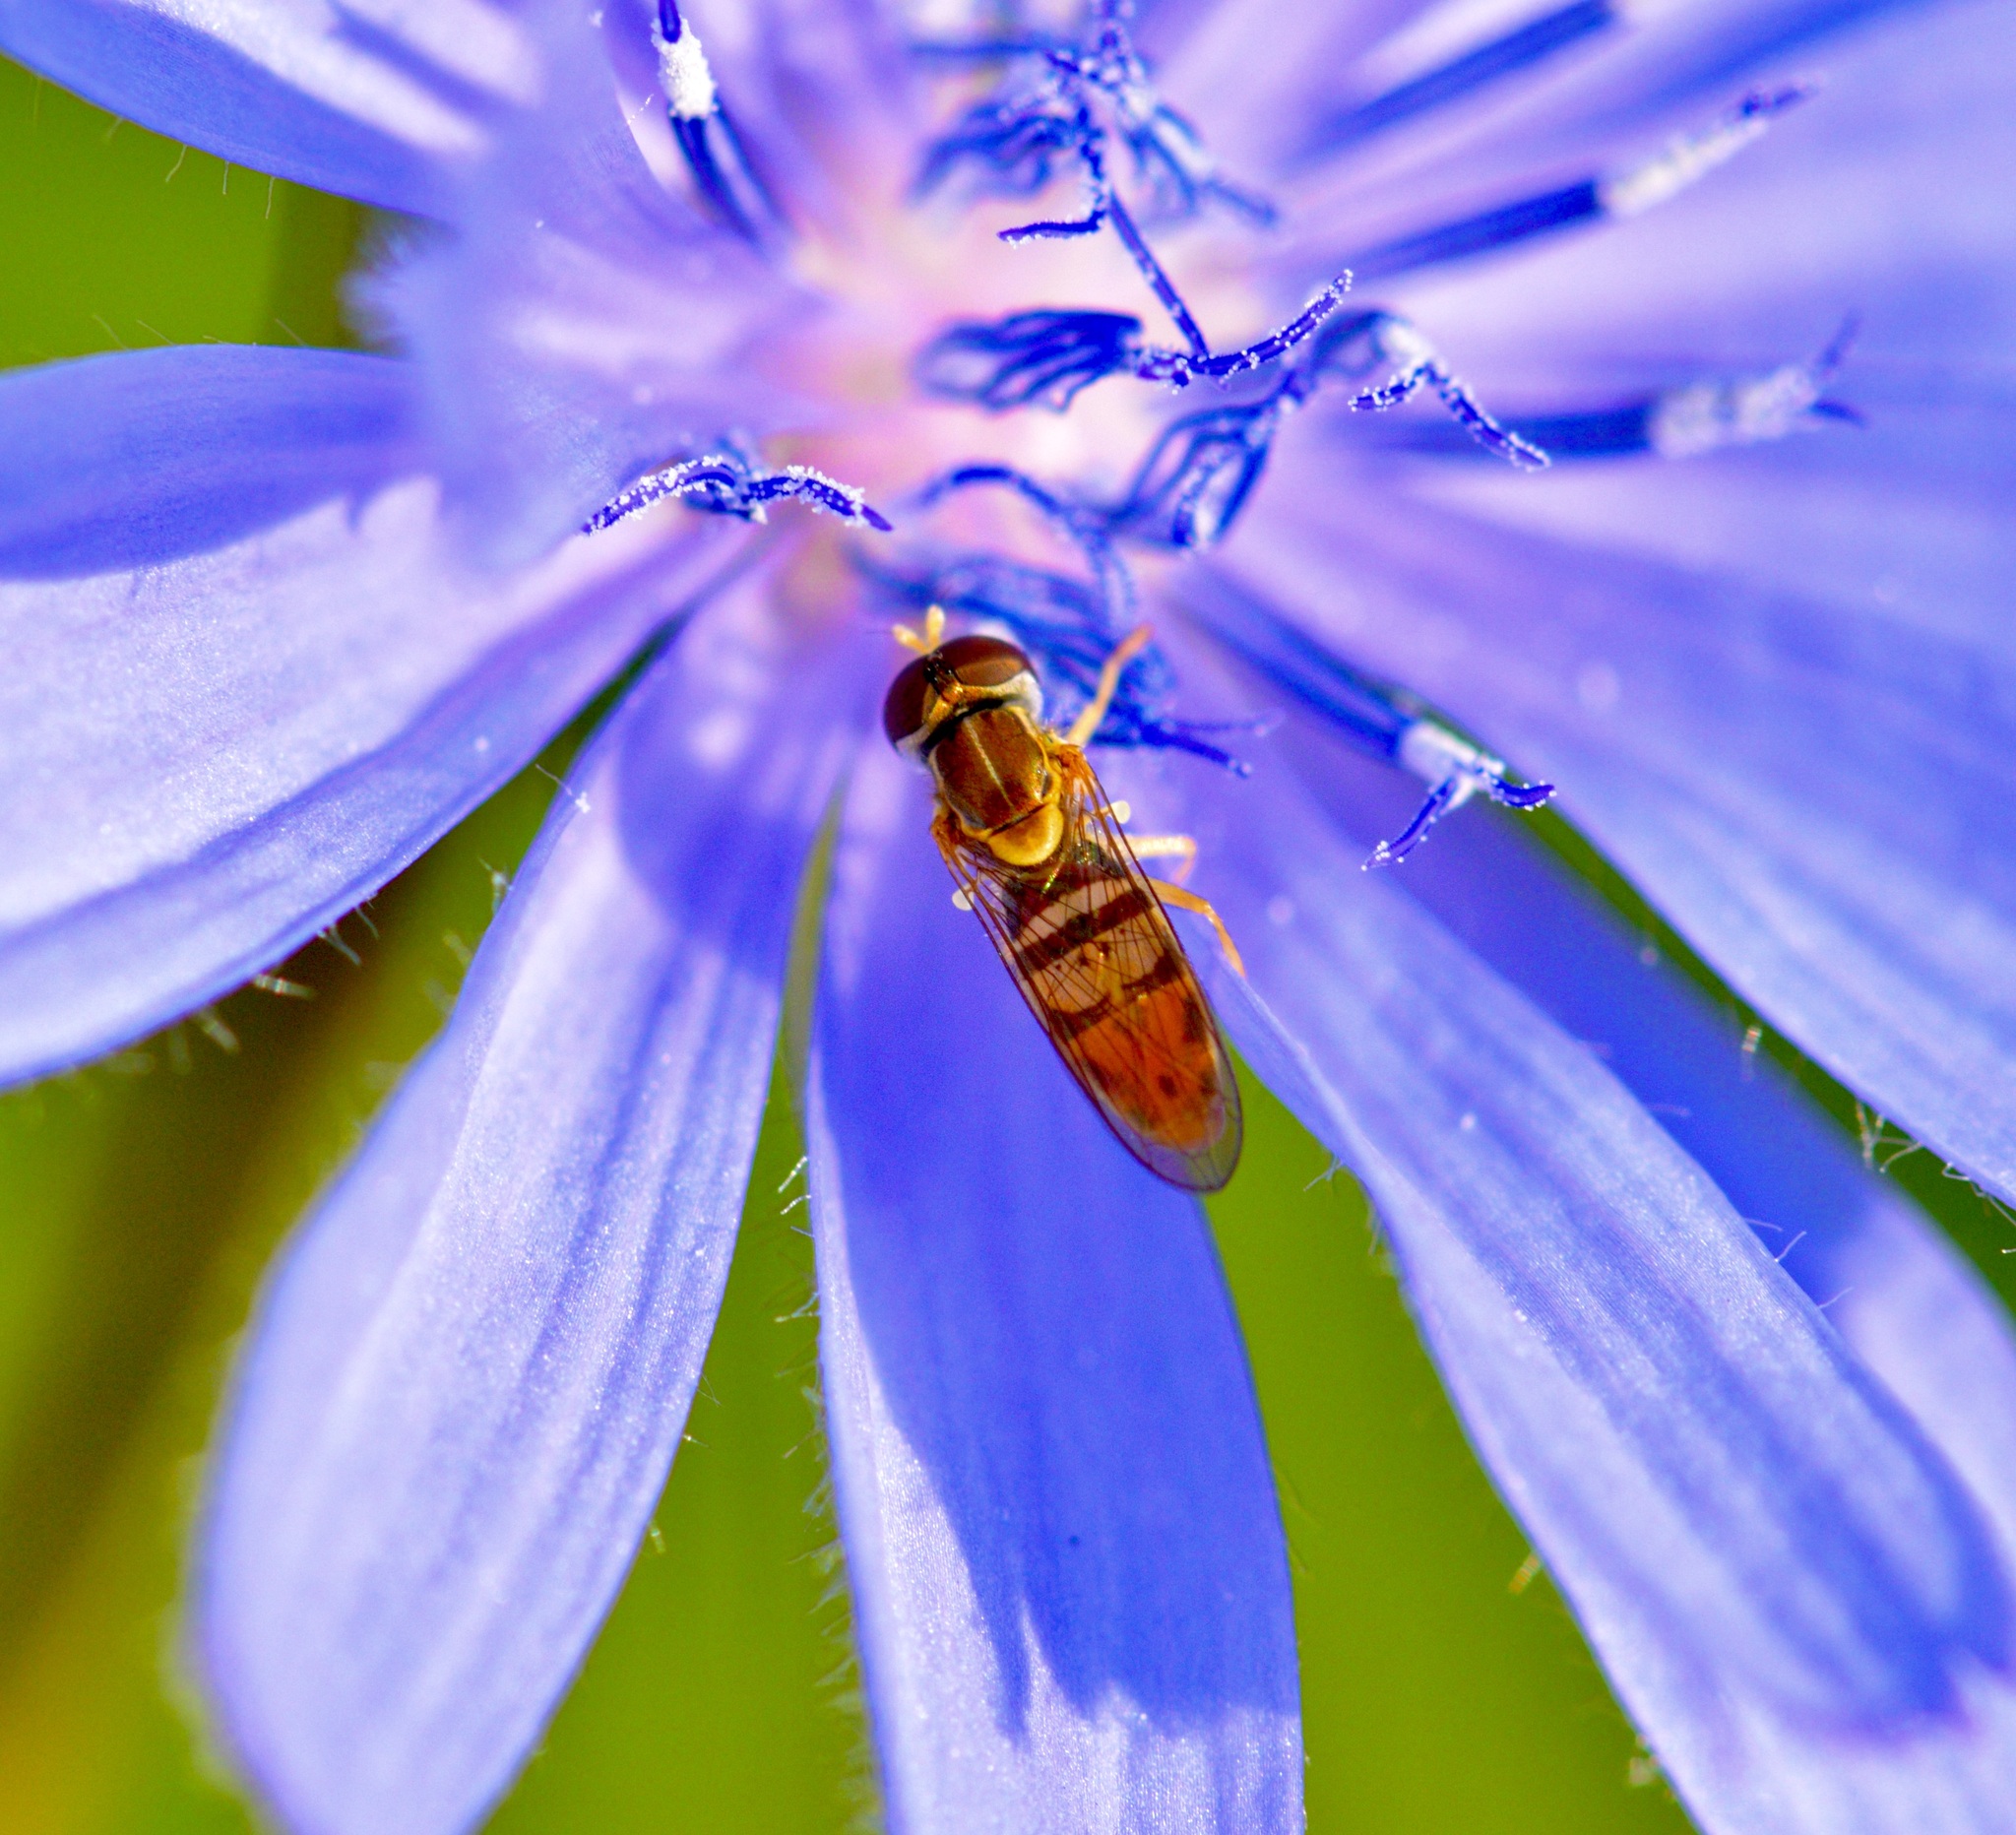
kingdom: Animalia
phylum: Arthropoda
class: Insecta
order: Diptera
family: Syrphidae
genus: Toxomerus
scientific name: Toxomerus marginatus
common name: Syrphid fly
